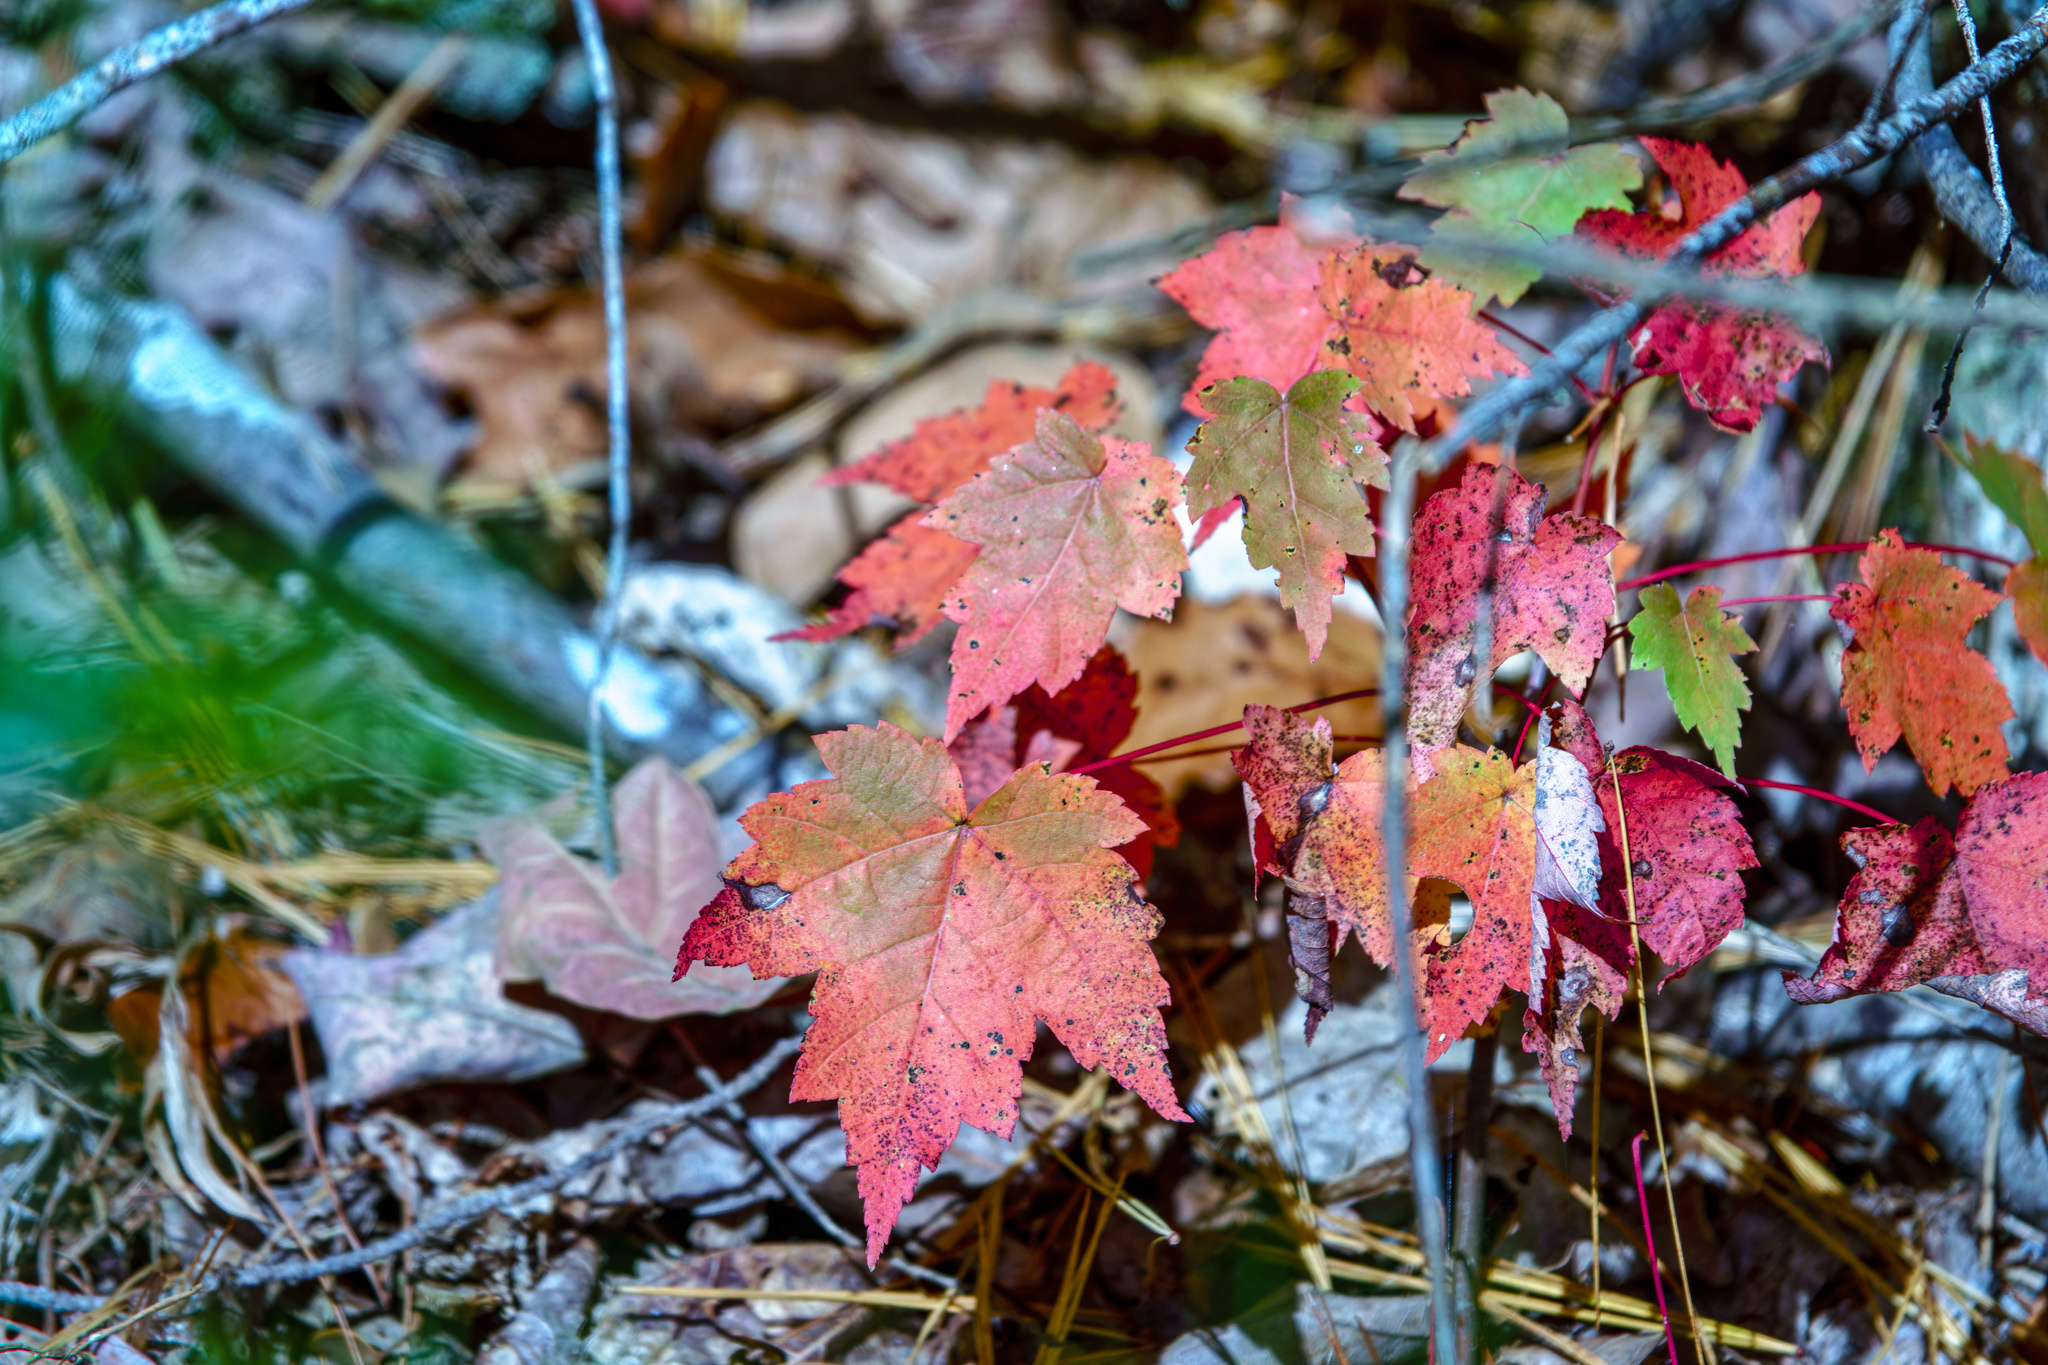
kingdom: Plantae
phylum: Tracheophyta
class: Magnoliopsida
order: Sapindales
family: Sapindaceae
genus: Acer
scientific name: Acer rubrum
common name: Red maple
